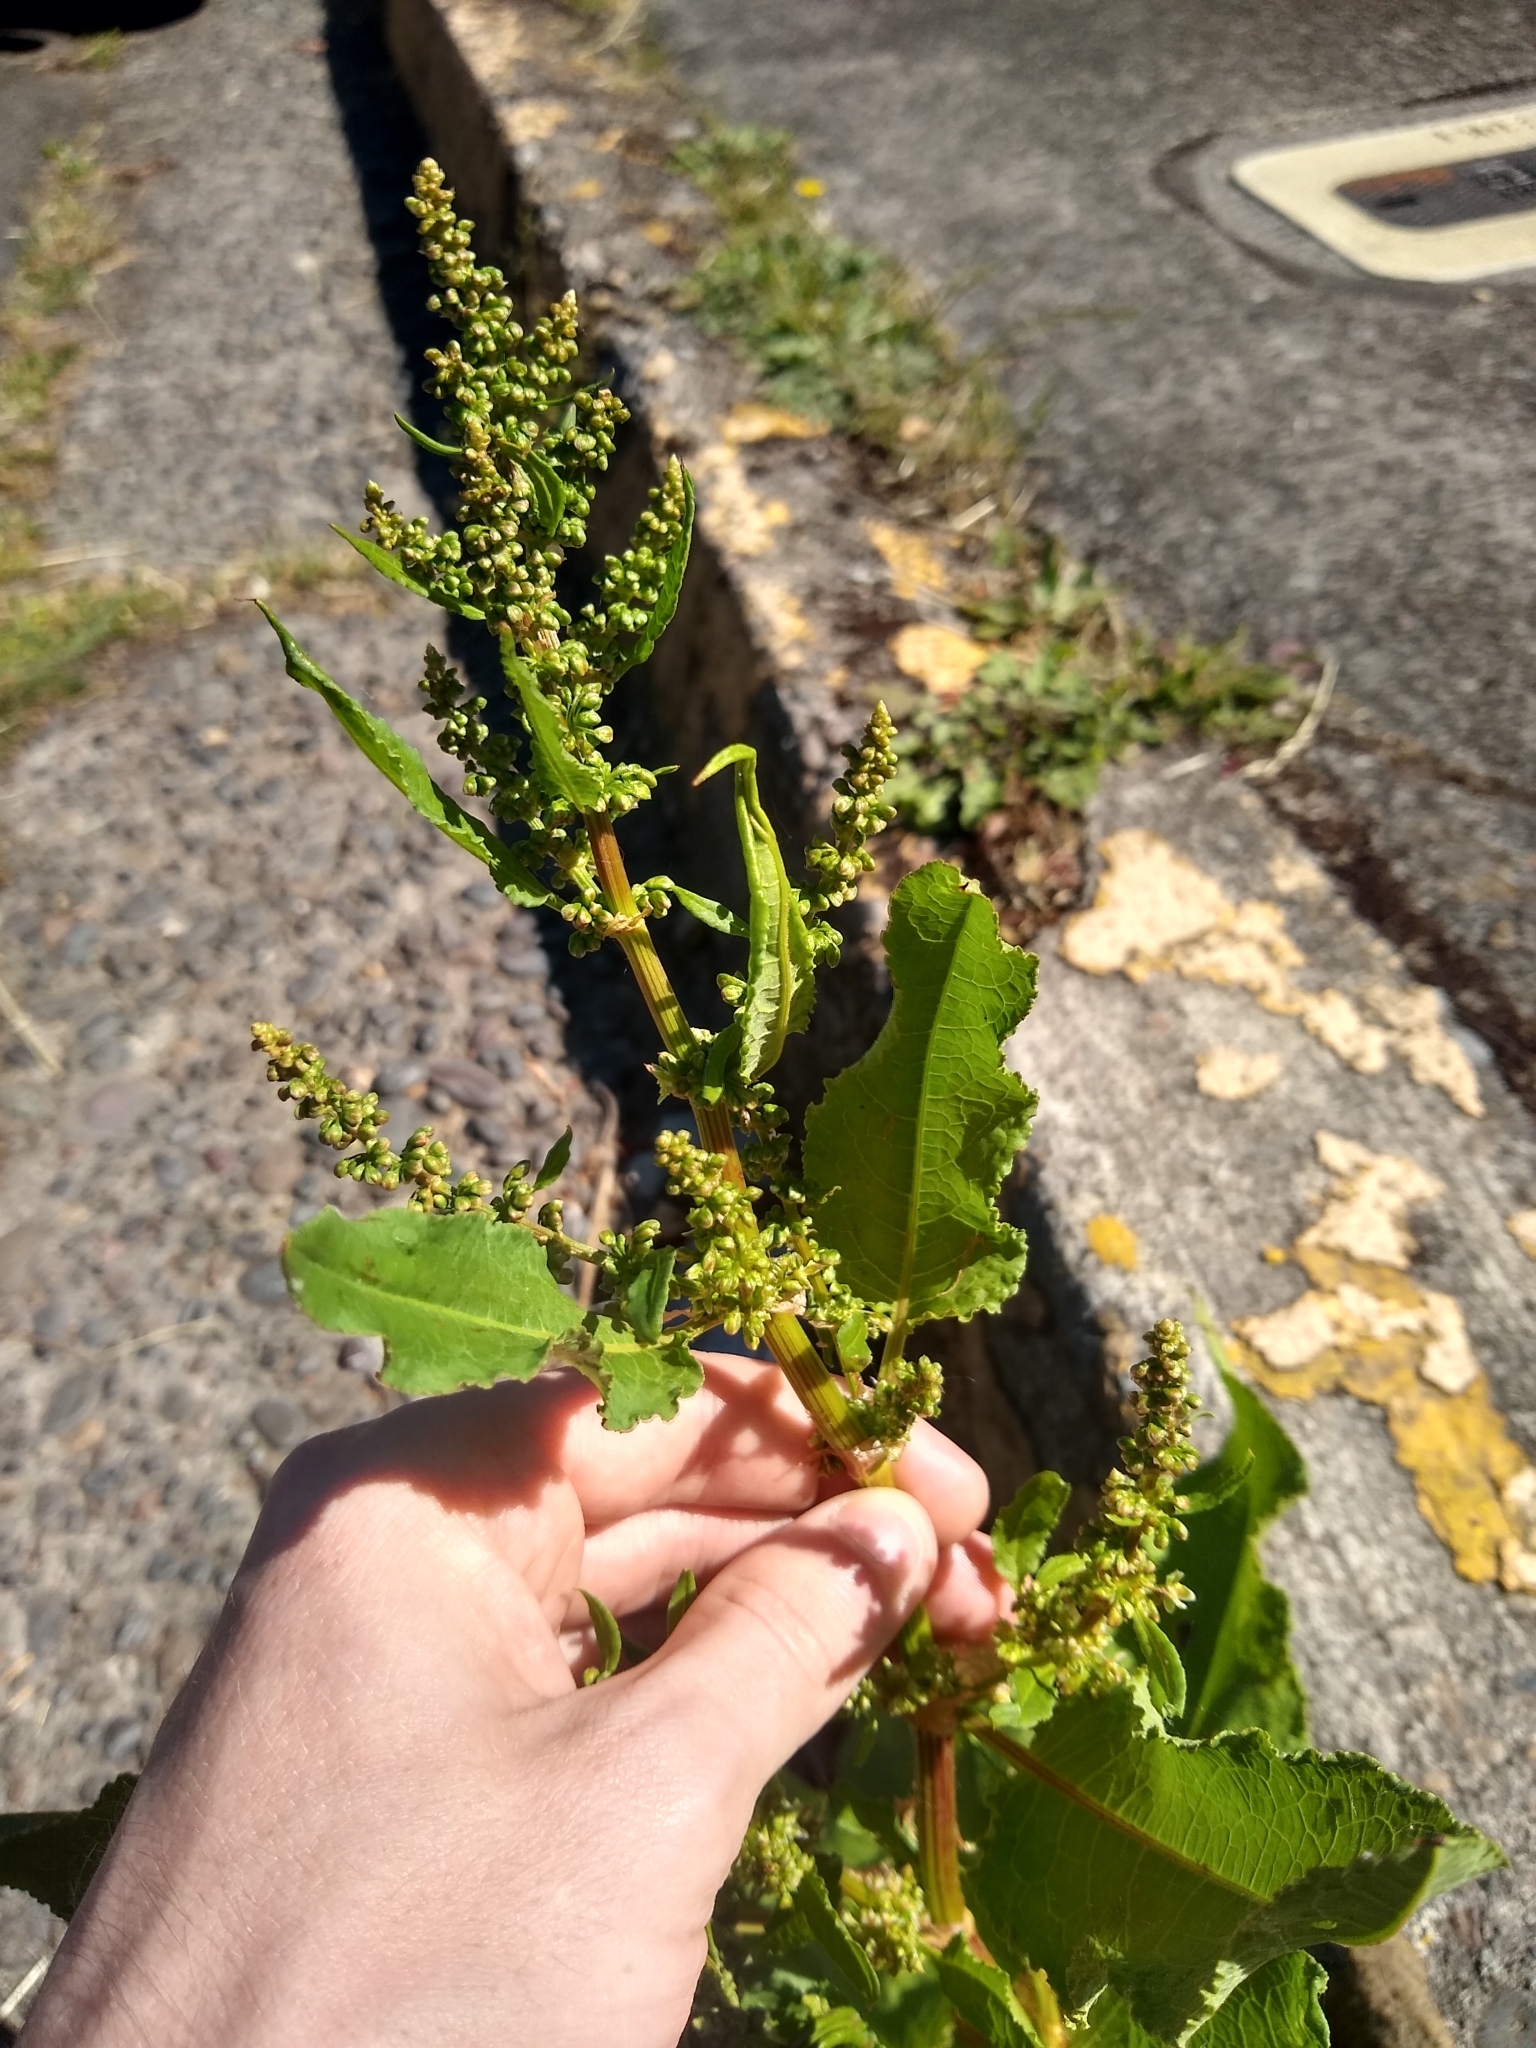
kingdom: Plantae
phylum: Tracheophyta
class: Magnoliopsida
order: Caryophyllales
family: Polygonaceae
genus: Rumex
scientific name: Rumex crispus
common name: Curled dock
